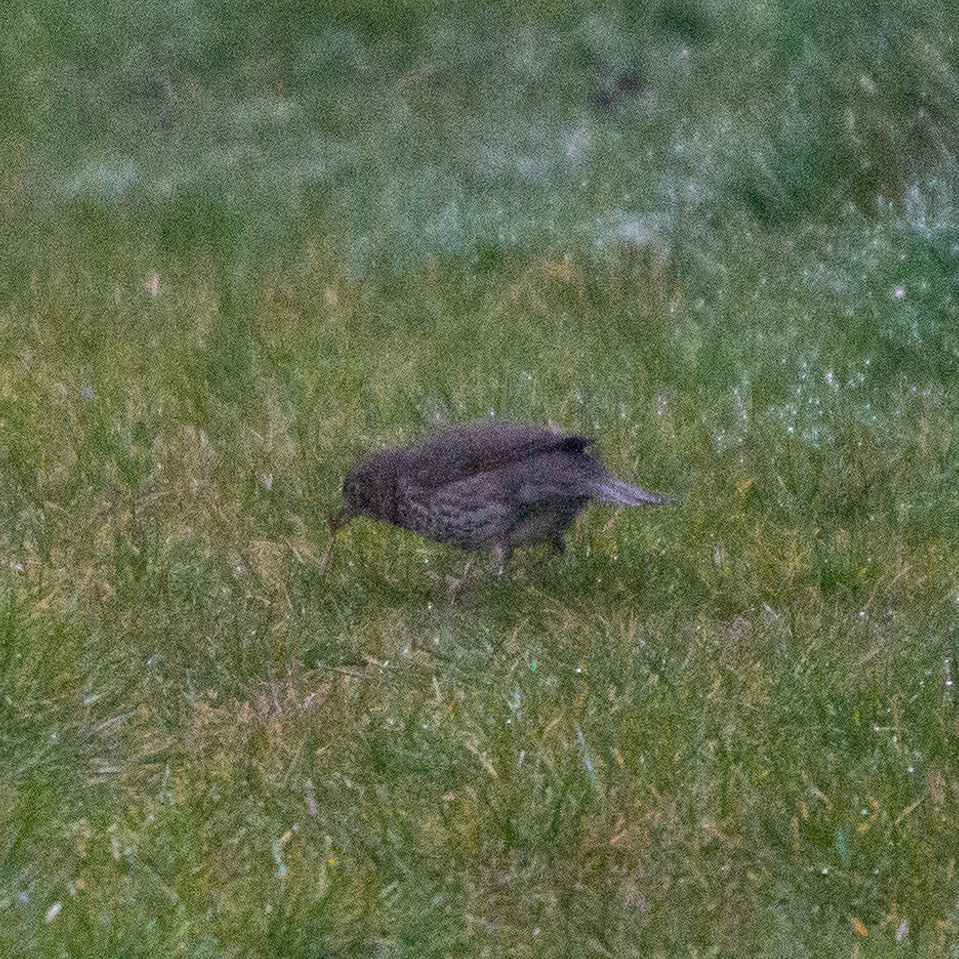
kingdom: Animalia
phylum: Chordata
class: Aves
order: Passeriformes
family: Turdidae
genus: Turdus
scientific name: Turdus philomelos
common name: Song thrush
